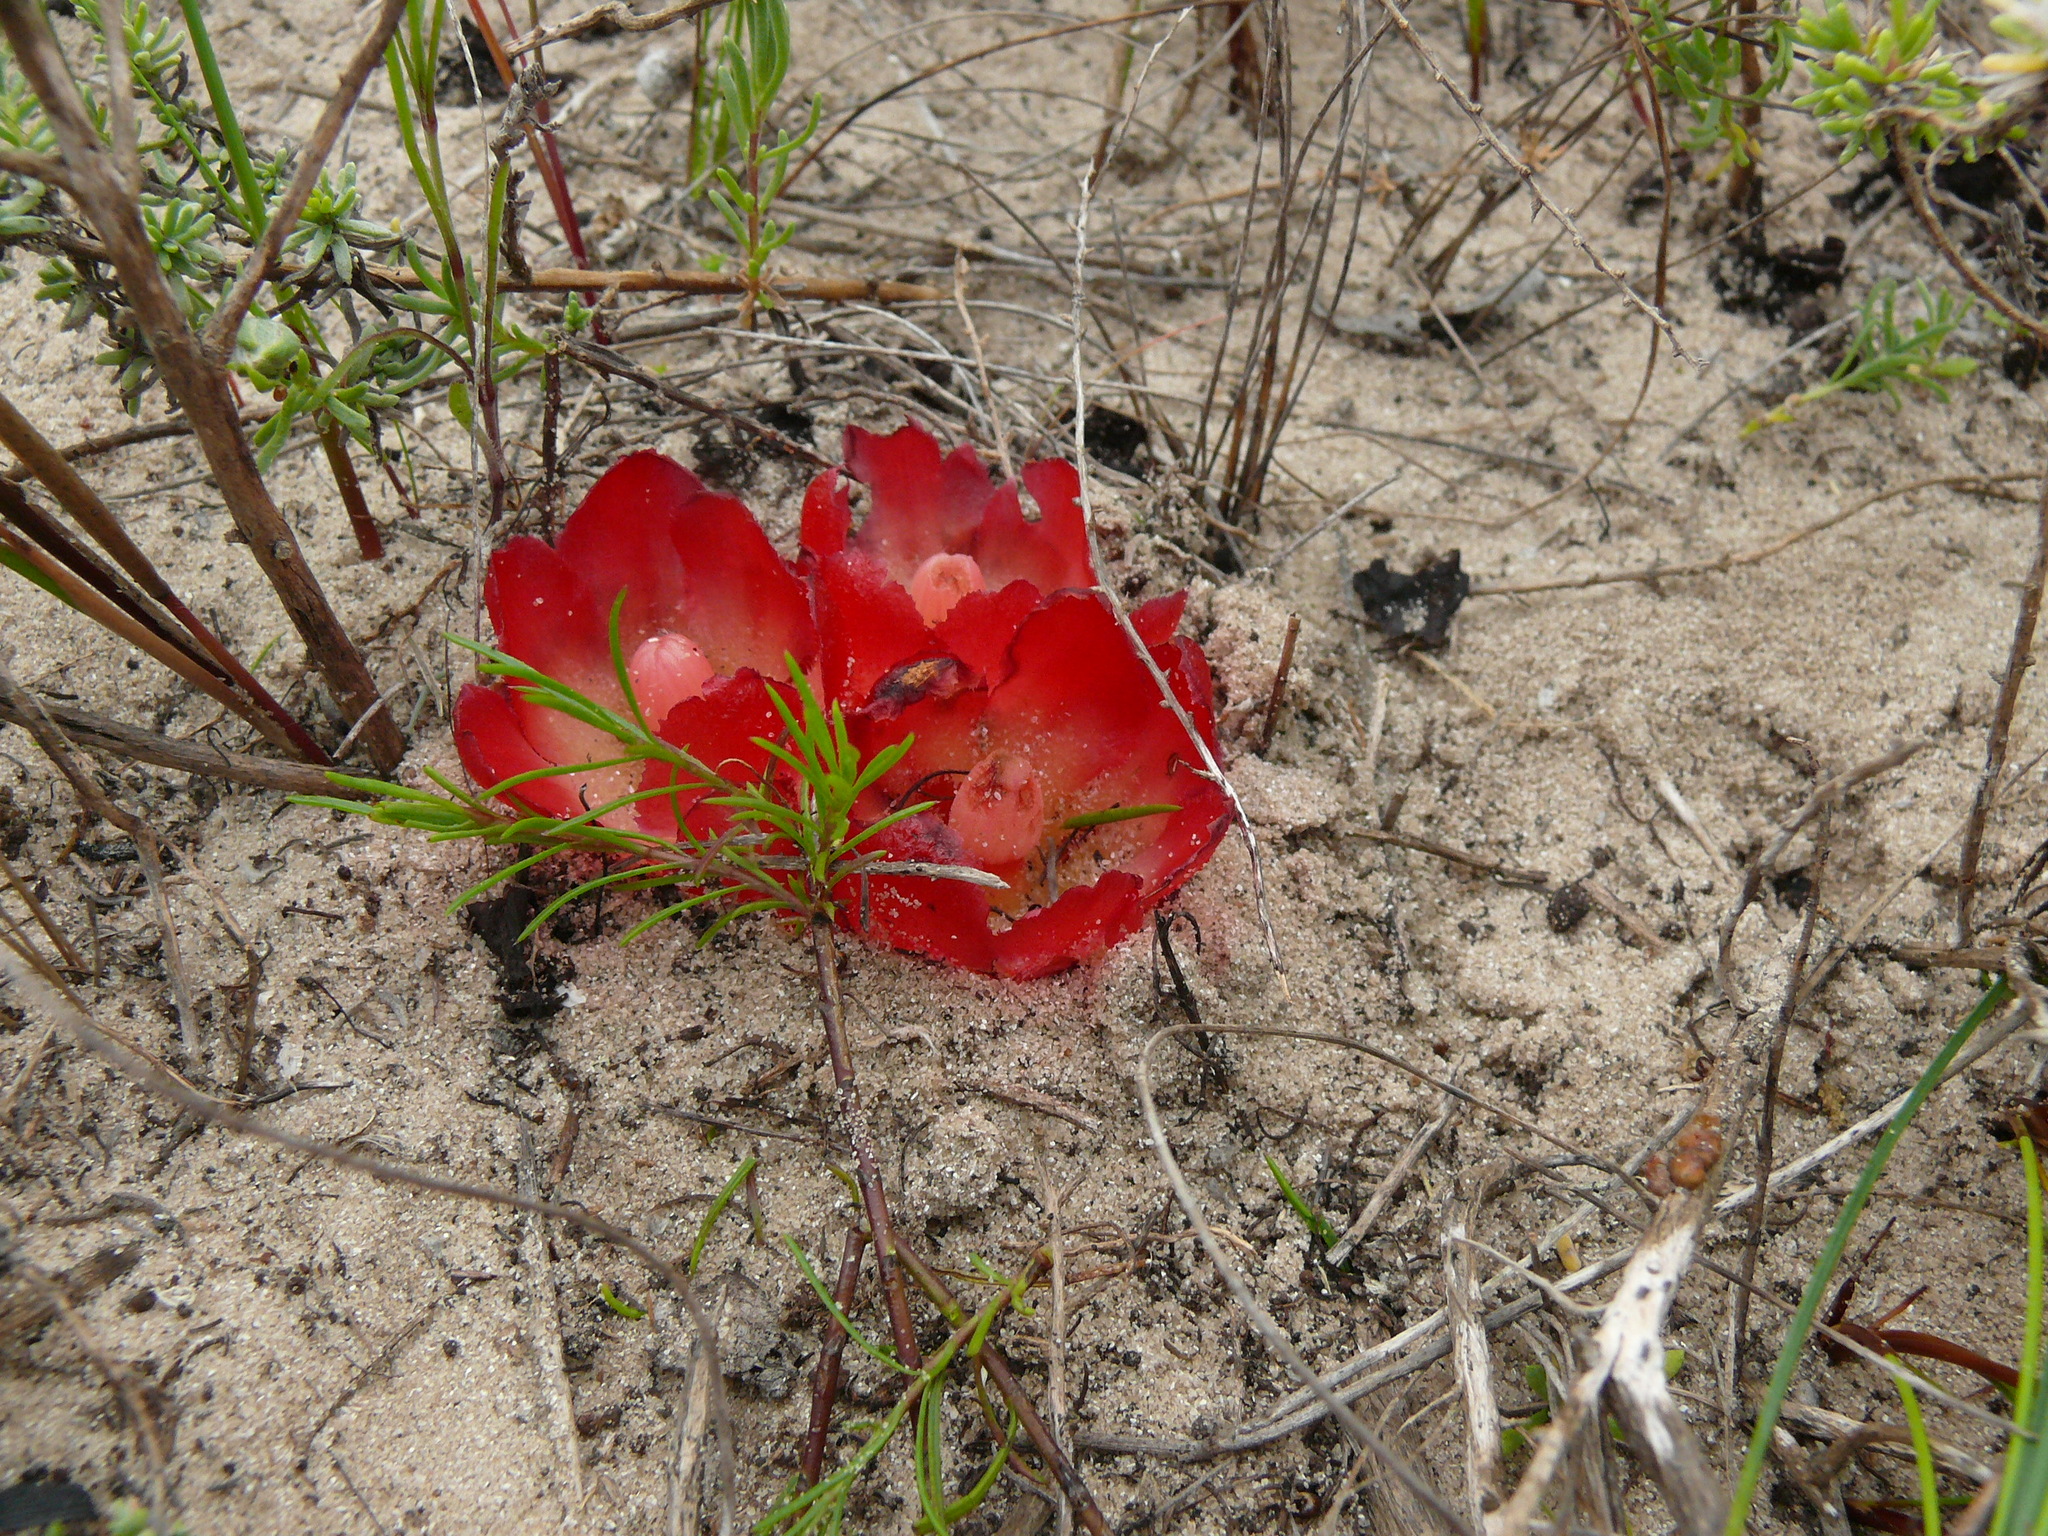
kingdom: Plantae
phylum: Tracheophyta
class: Magnoliopsida
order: Malvales
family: Cytinaceae
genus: Cytinus
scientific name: Cytinus sanguineus
